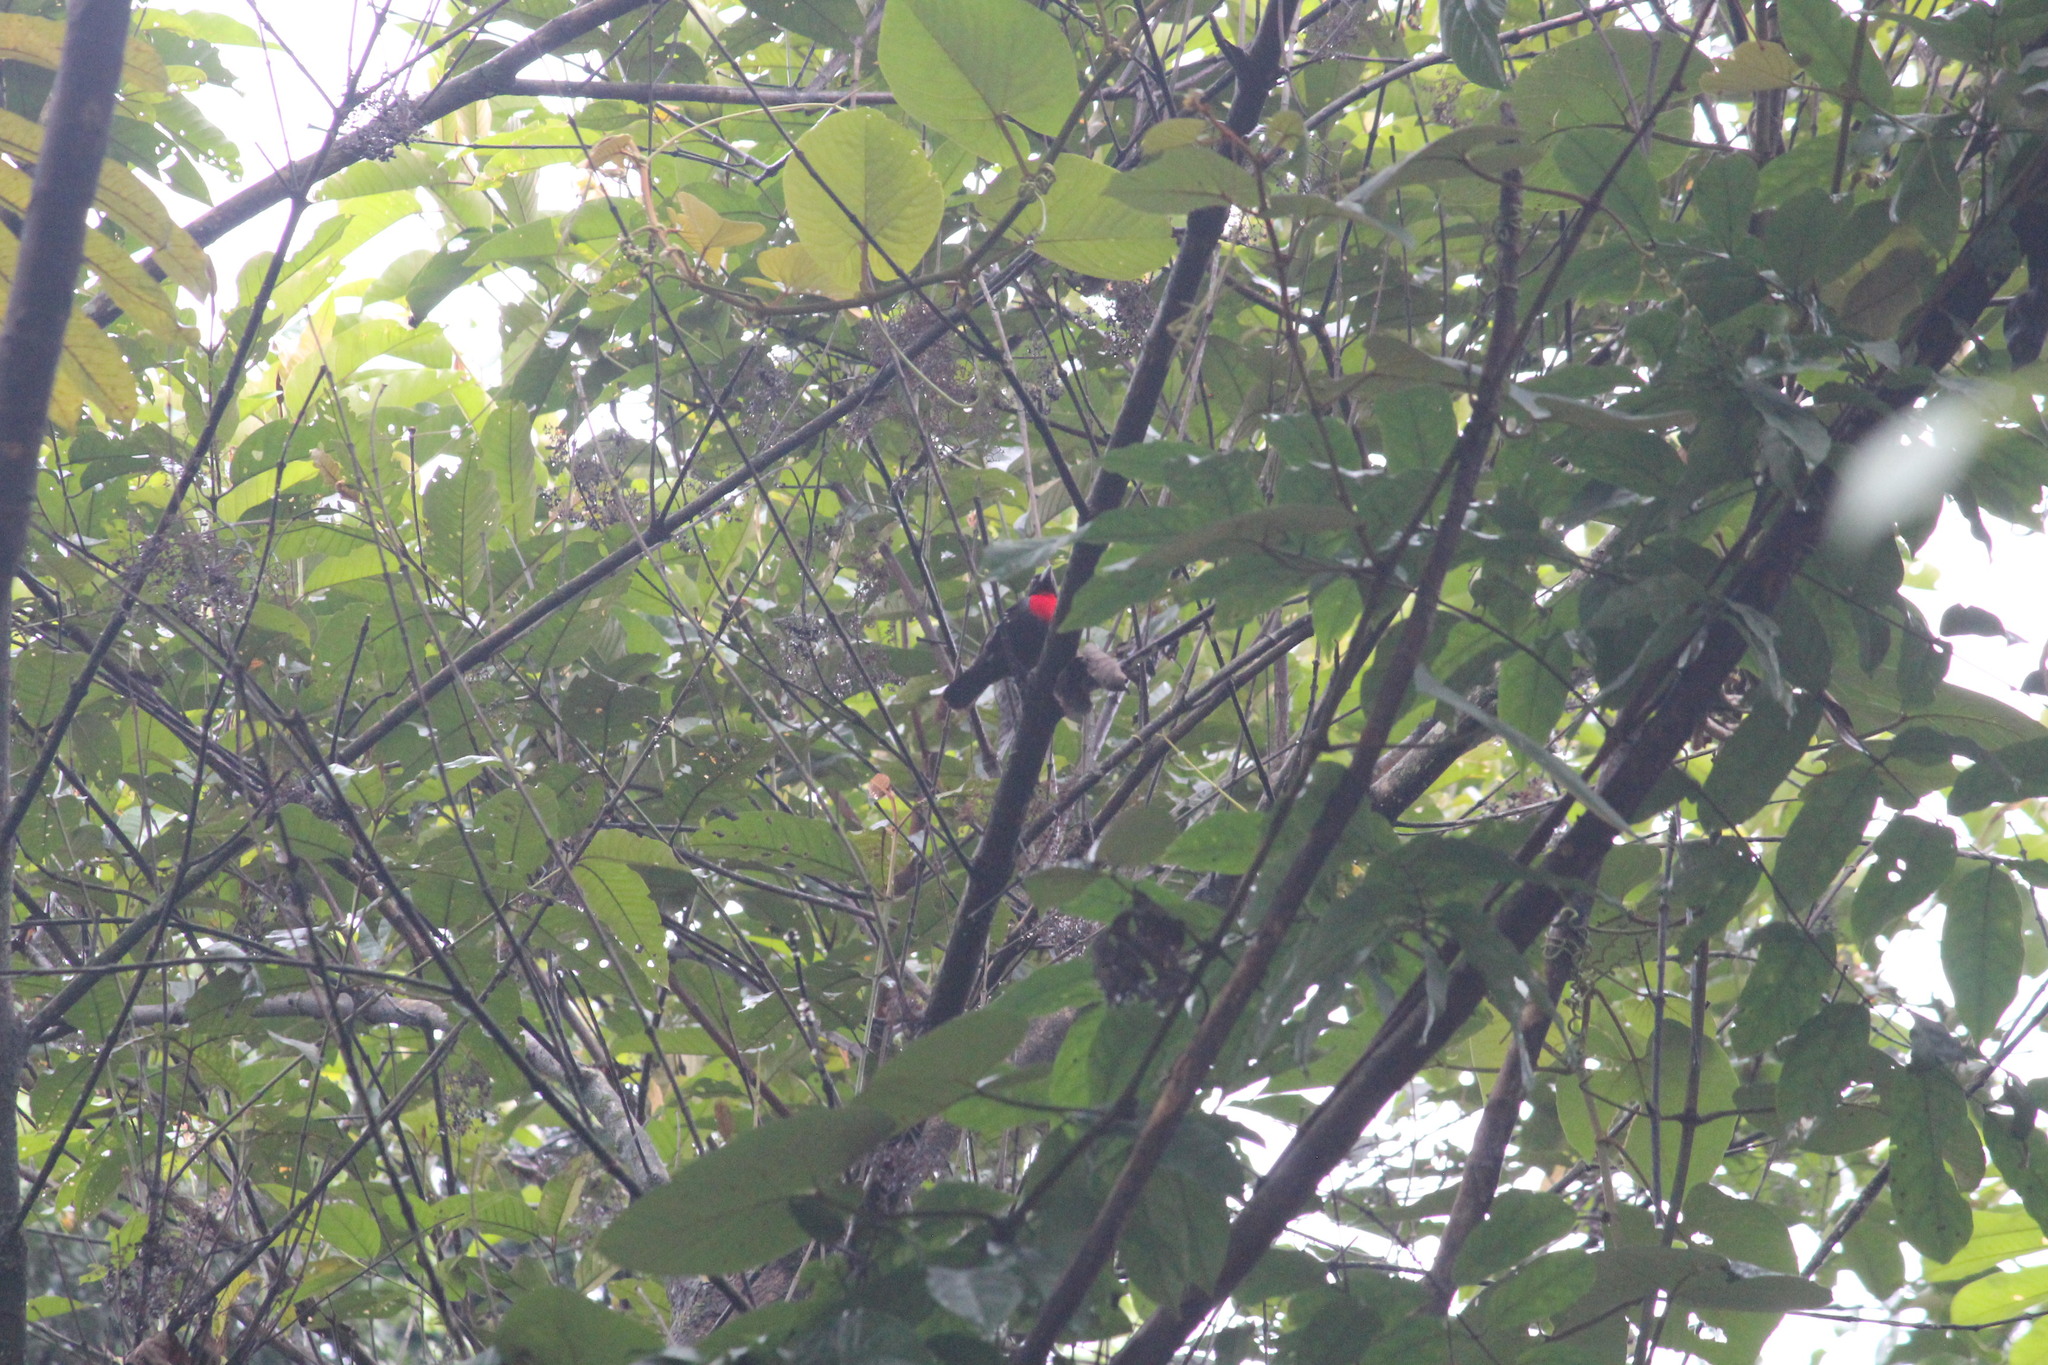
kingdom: Animalia
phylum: Chordata
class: Aves
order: Passeriformes
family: Ploceidae
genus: Malimbus
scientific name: Malimbus nitens
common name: Blue-billed malimbe
